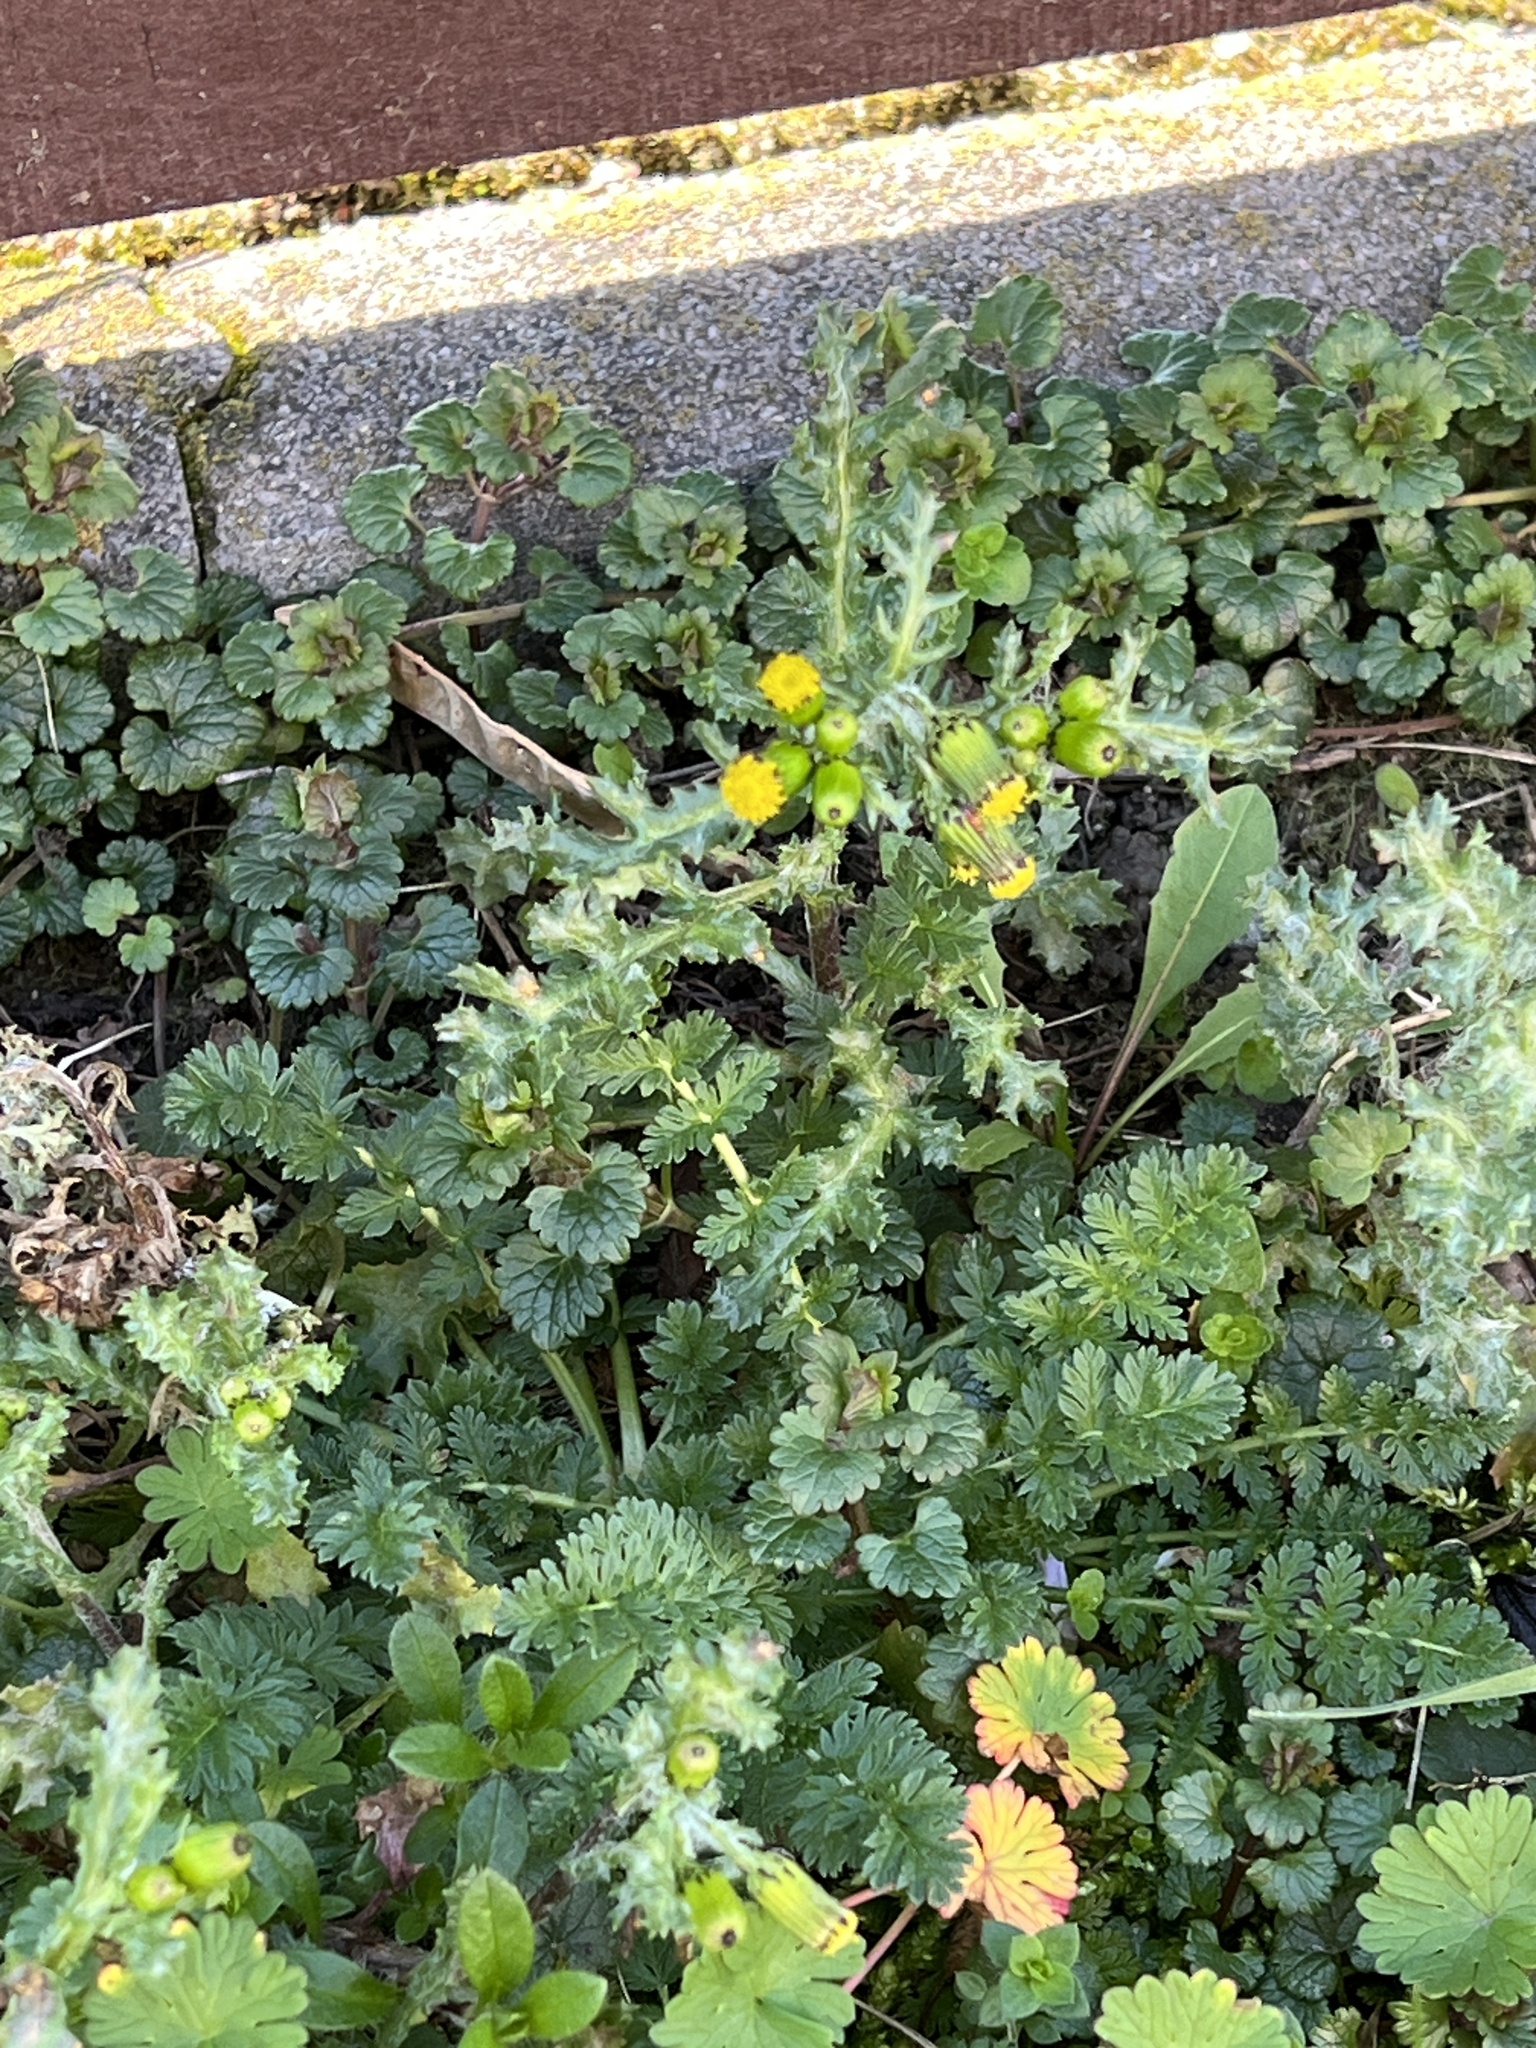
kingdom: Plantae
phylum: Tracheophyta
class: Magnoliopsida
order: Asterales
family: Asteraceae
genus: Senecio
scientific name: Senecio vulgaris
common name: Old-man-in-the-spring
